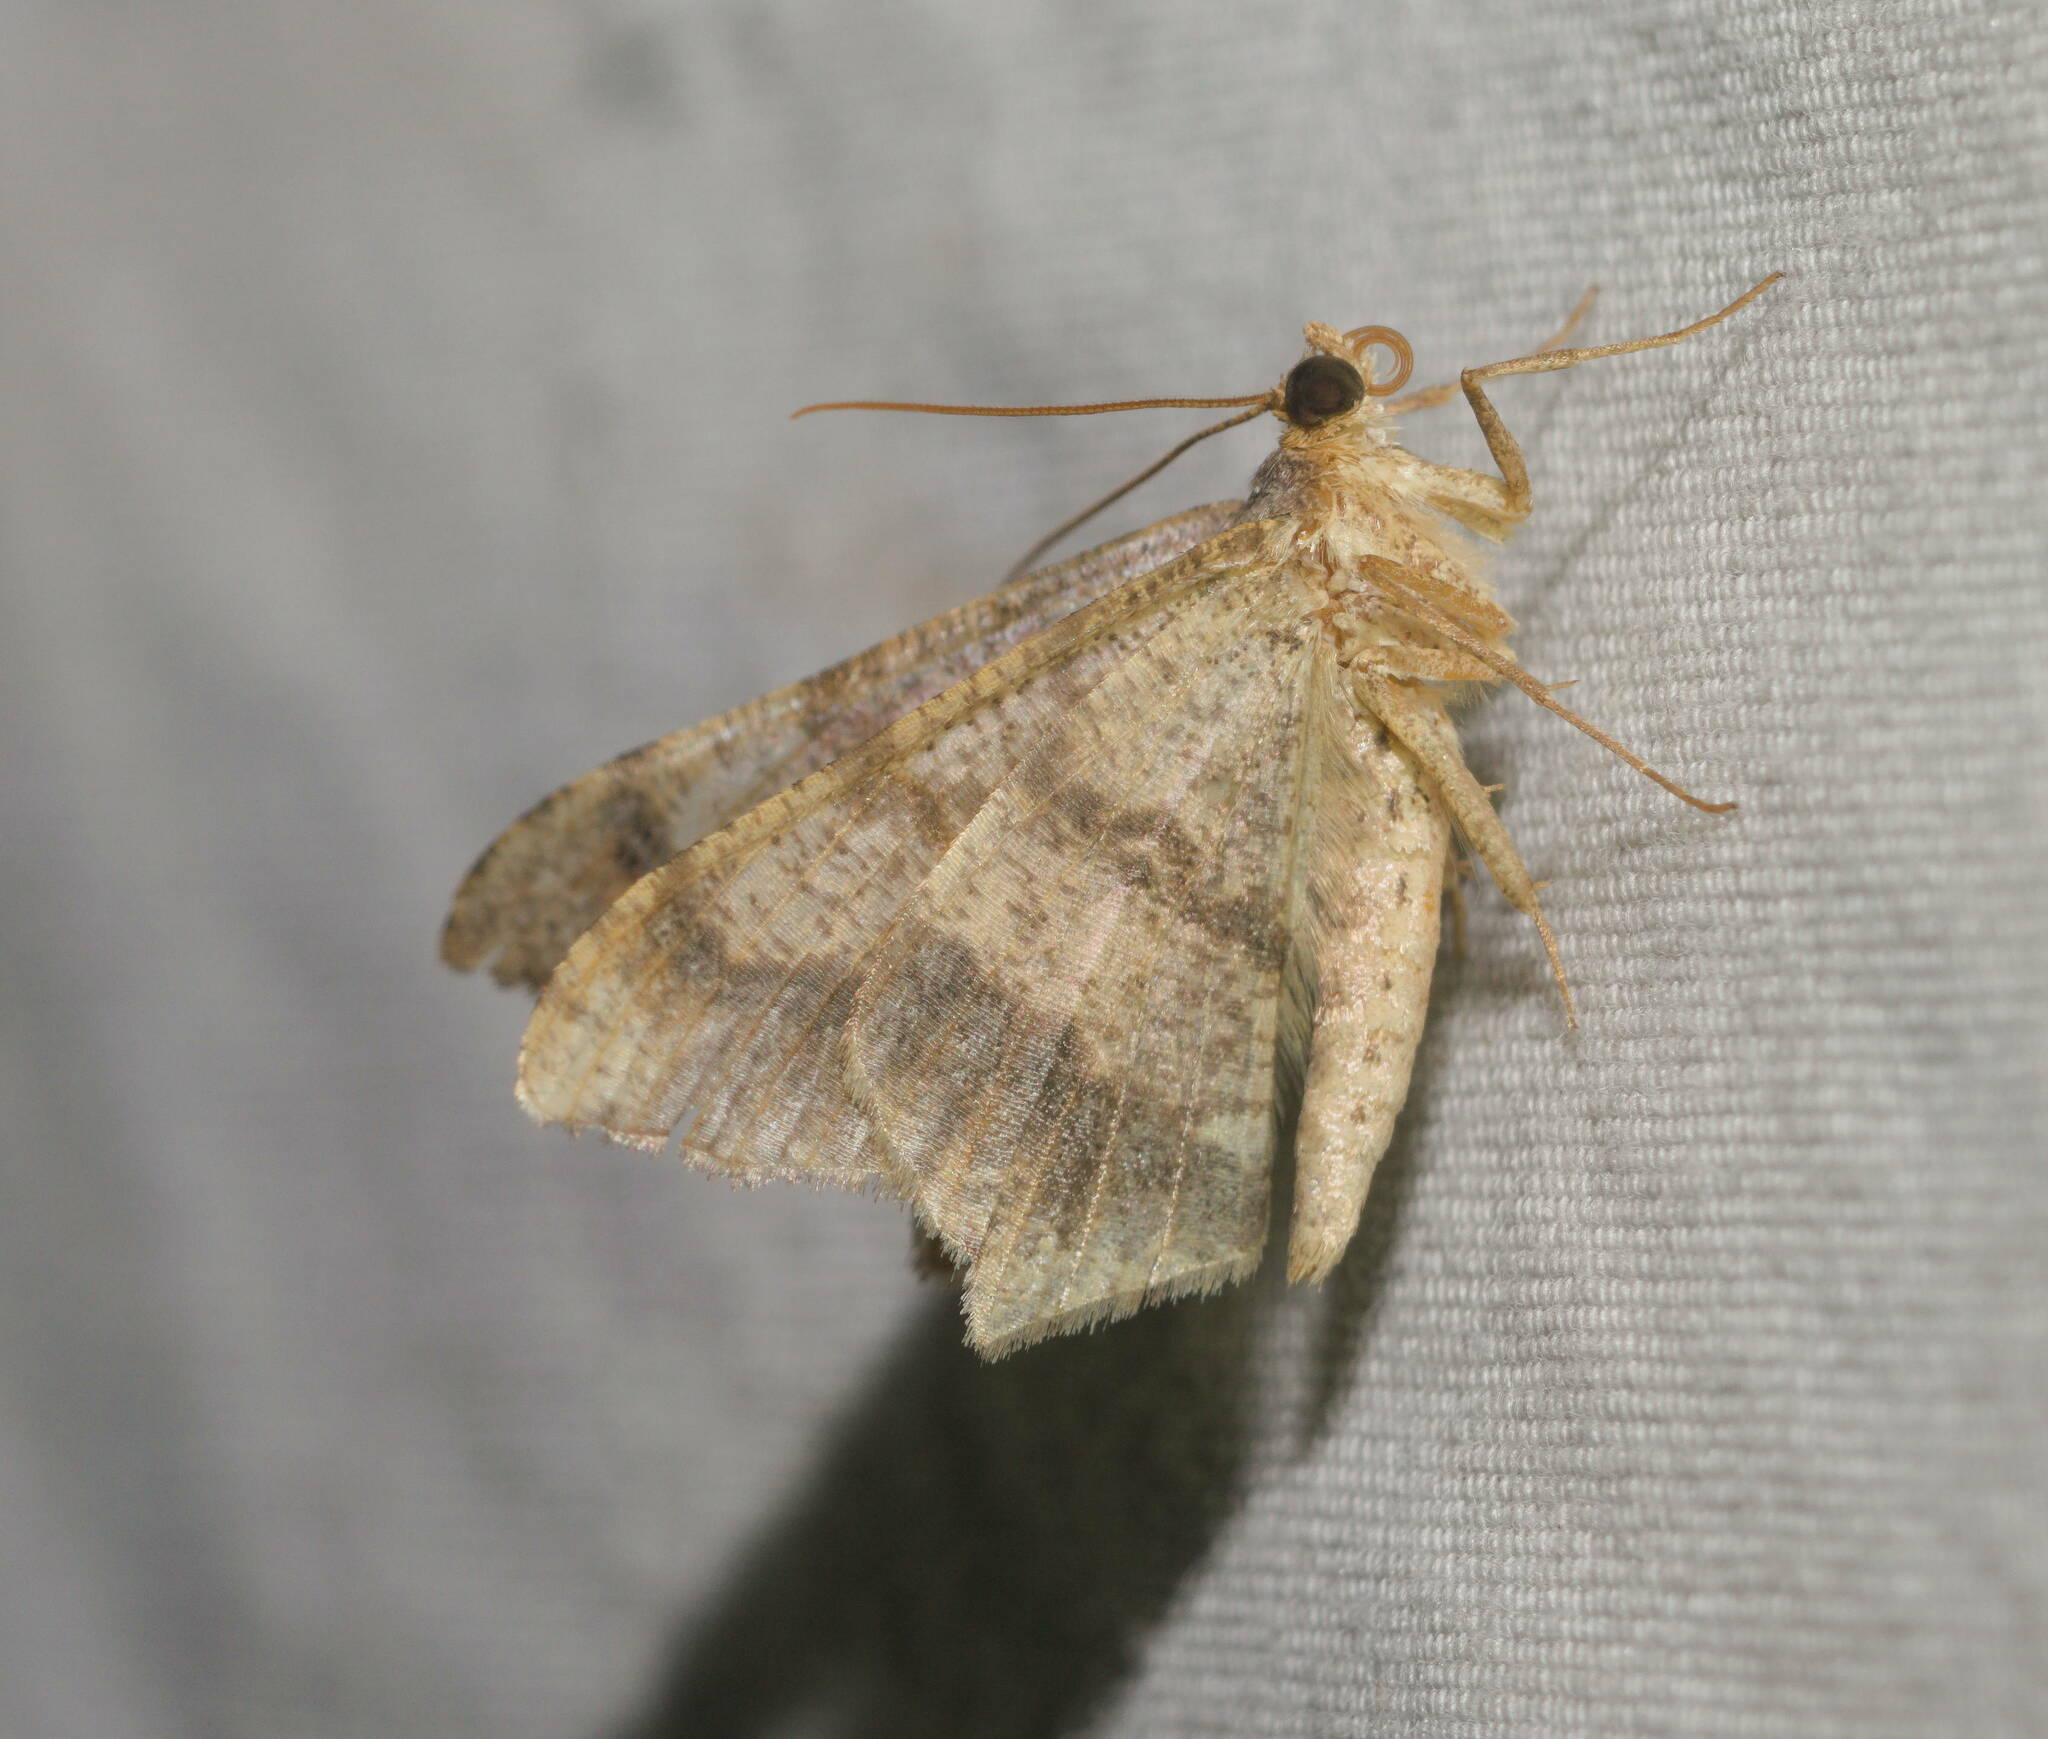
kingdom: Animalia
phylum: Arthropoda
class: Insecta
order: Lepidoptera
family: Geometridae
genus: Macaria
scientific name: Macaria abydata
